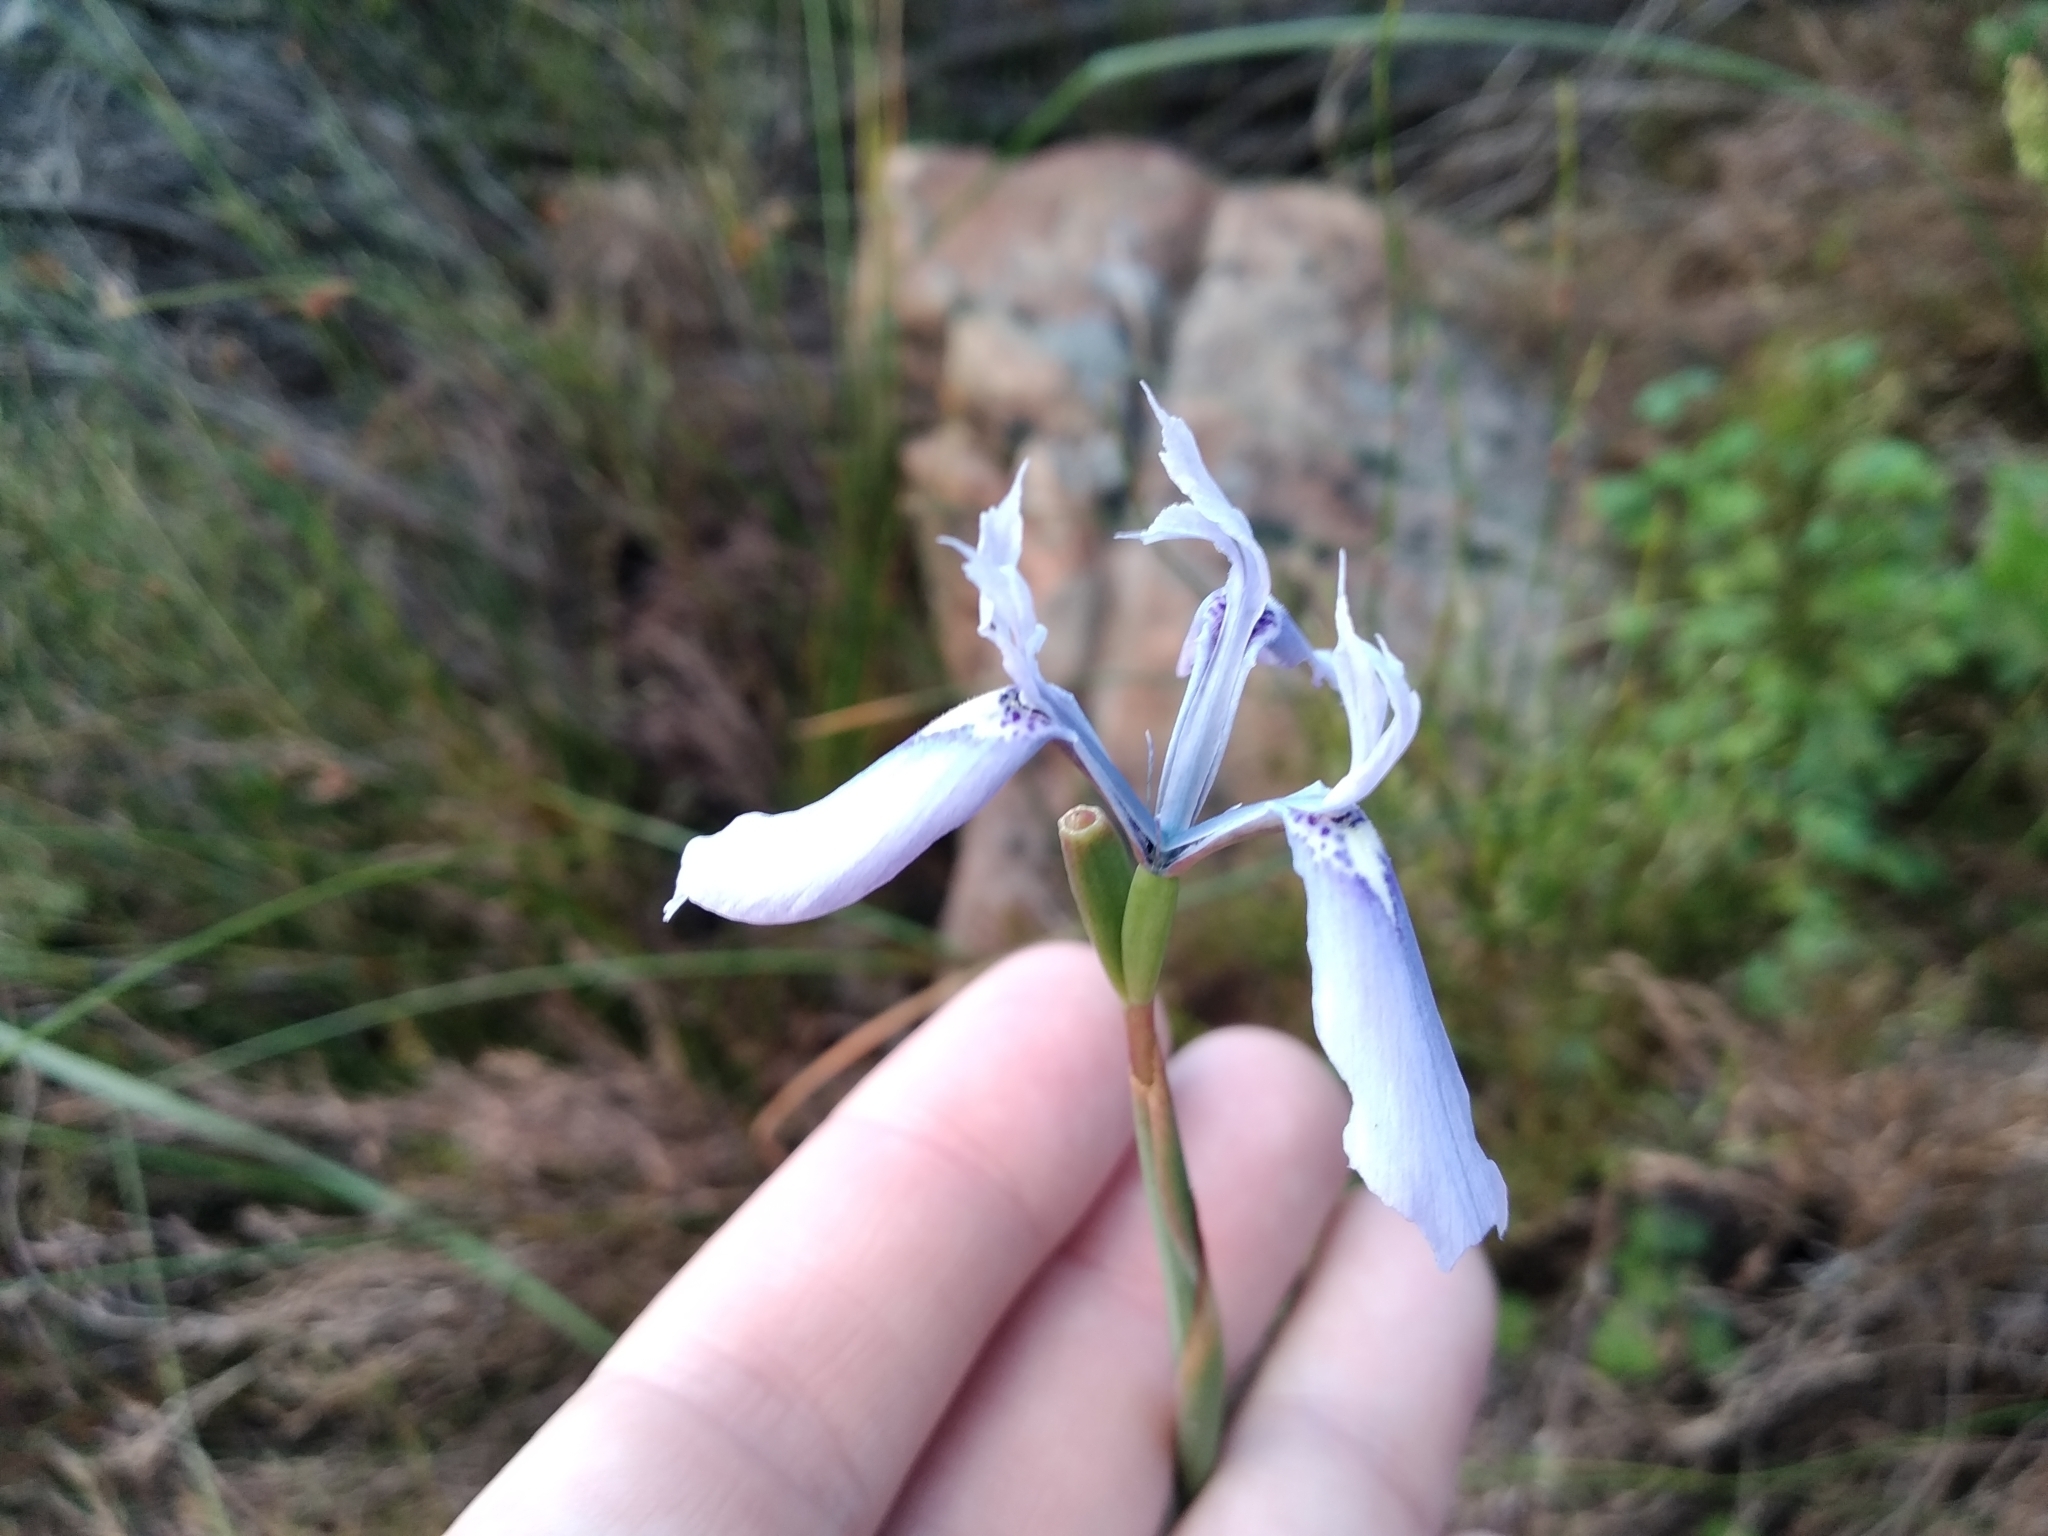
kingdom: Plantae
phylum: Tracheophyta
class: Liliopsida
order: Asparagales
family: Iridaceae
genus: Moraea
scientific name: Moraea tripetala
